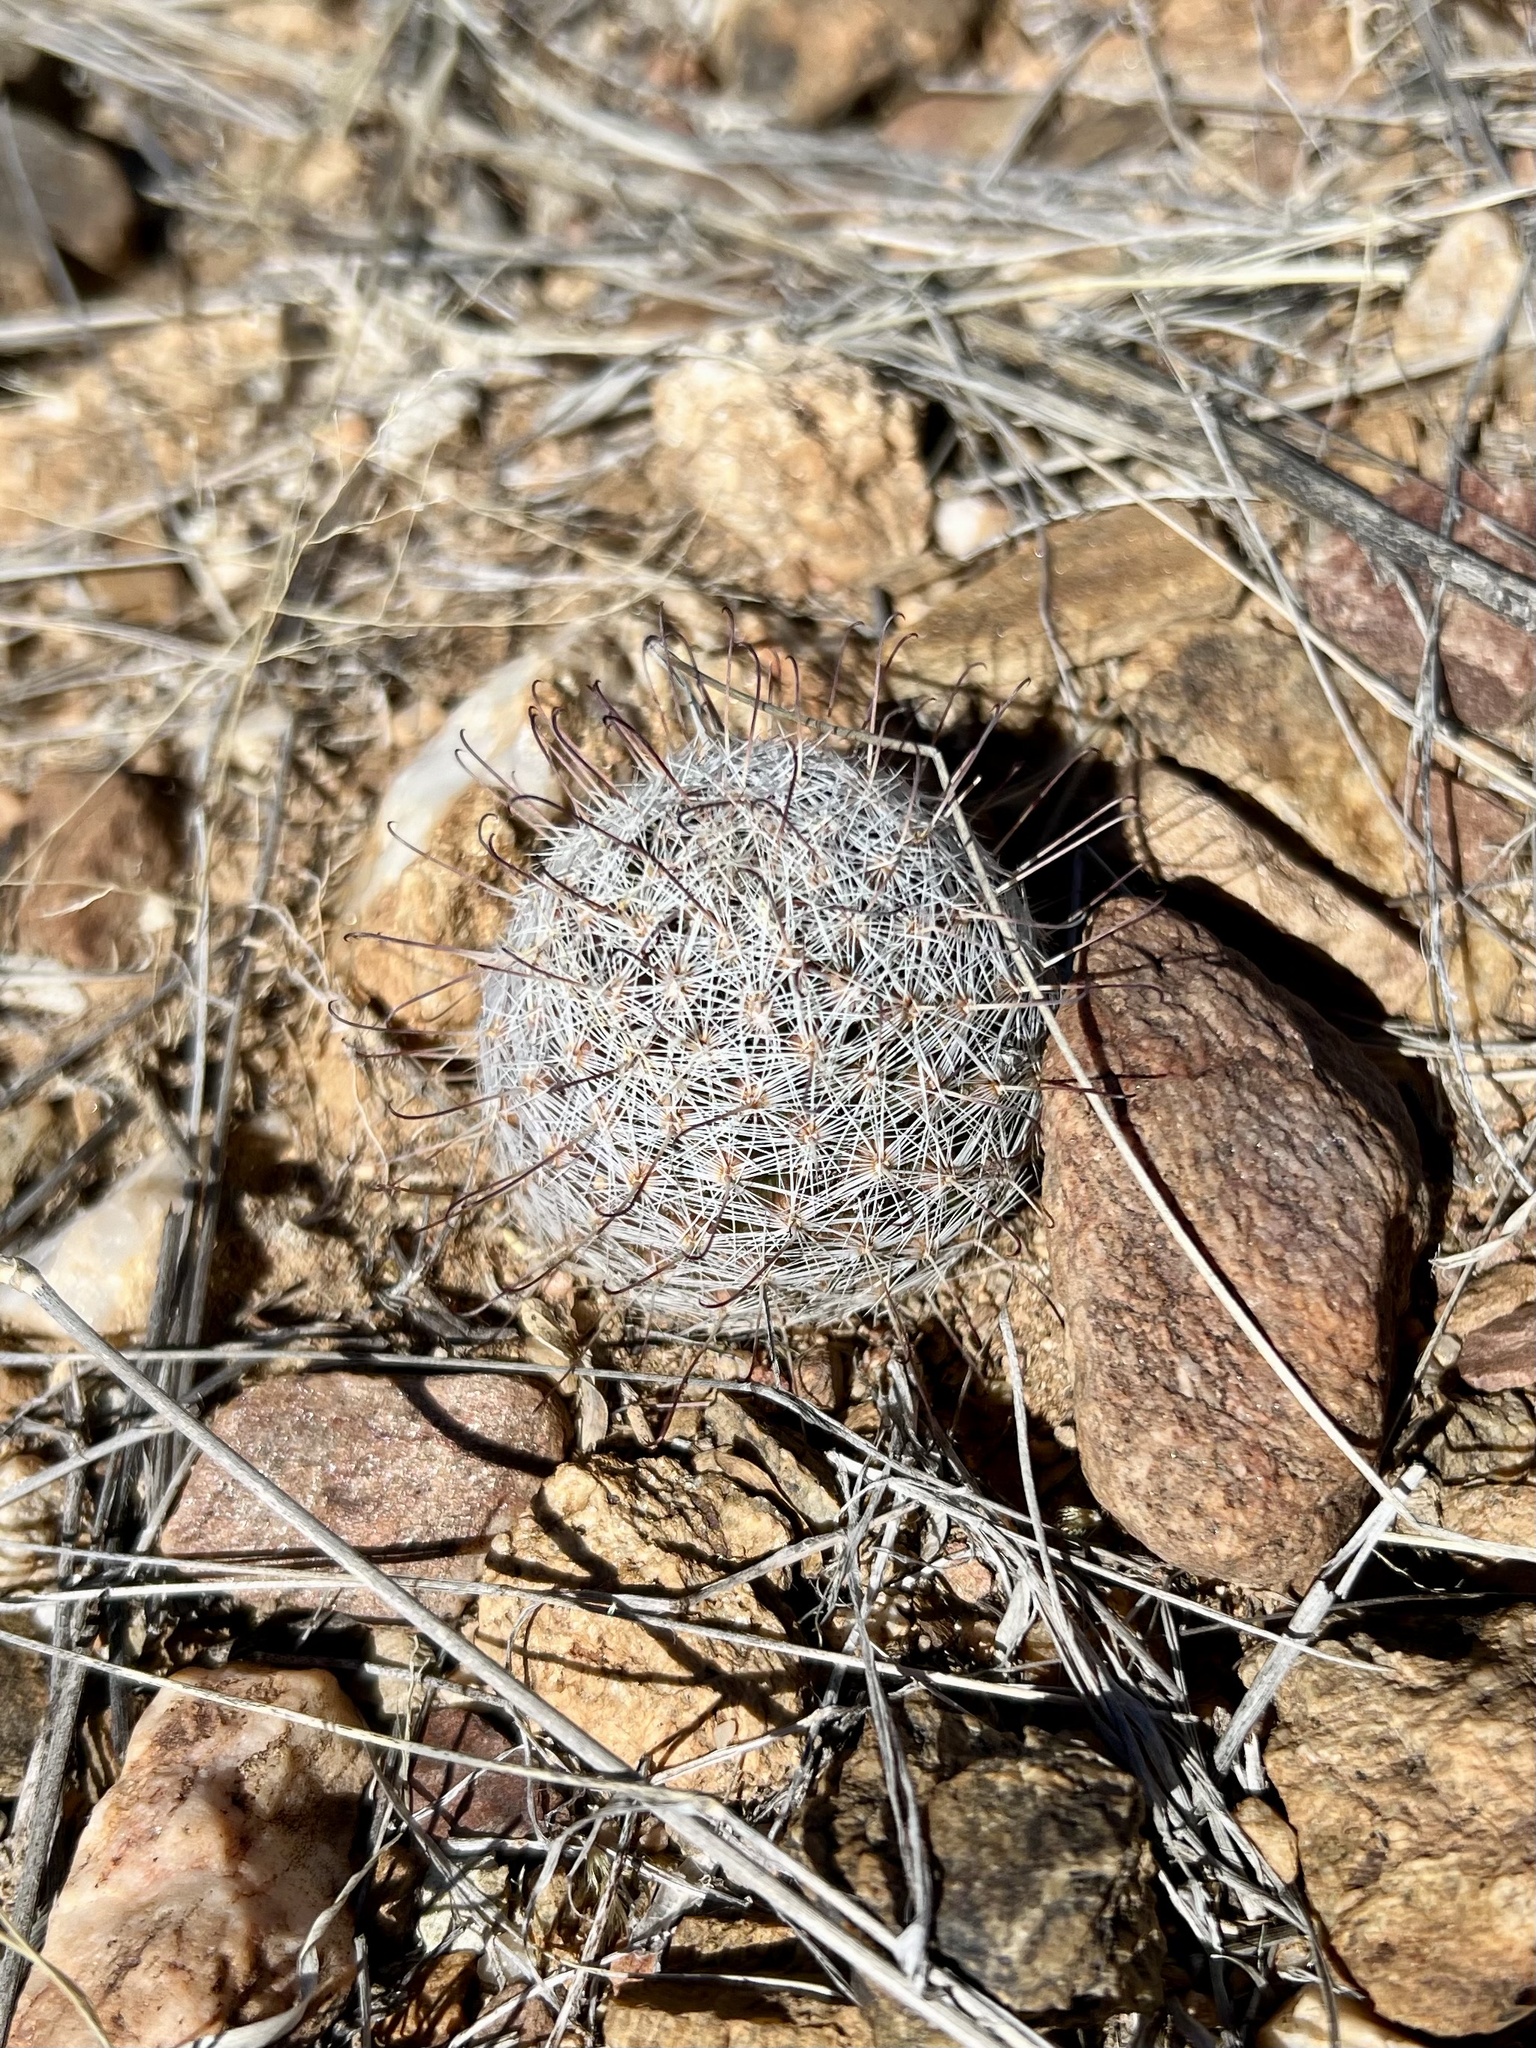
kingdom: Plantae
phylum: Tracheophyta
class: Magnoliopsida
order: Caryophyllales
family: Cactaceae
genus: Cochemiea
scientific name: Cochemiea grahamii
